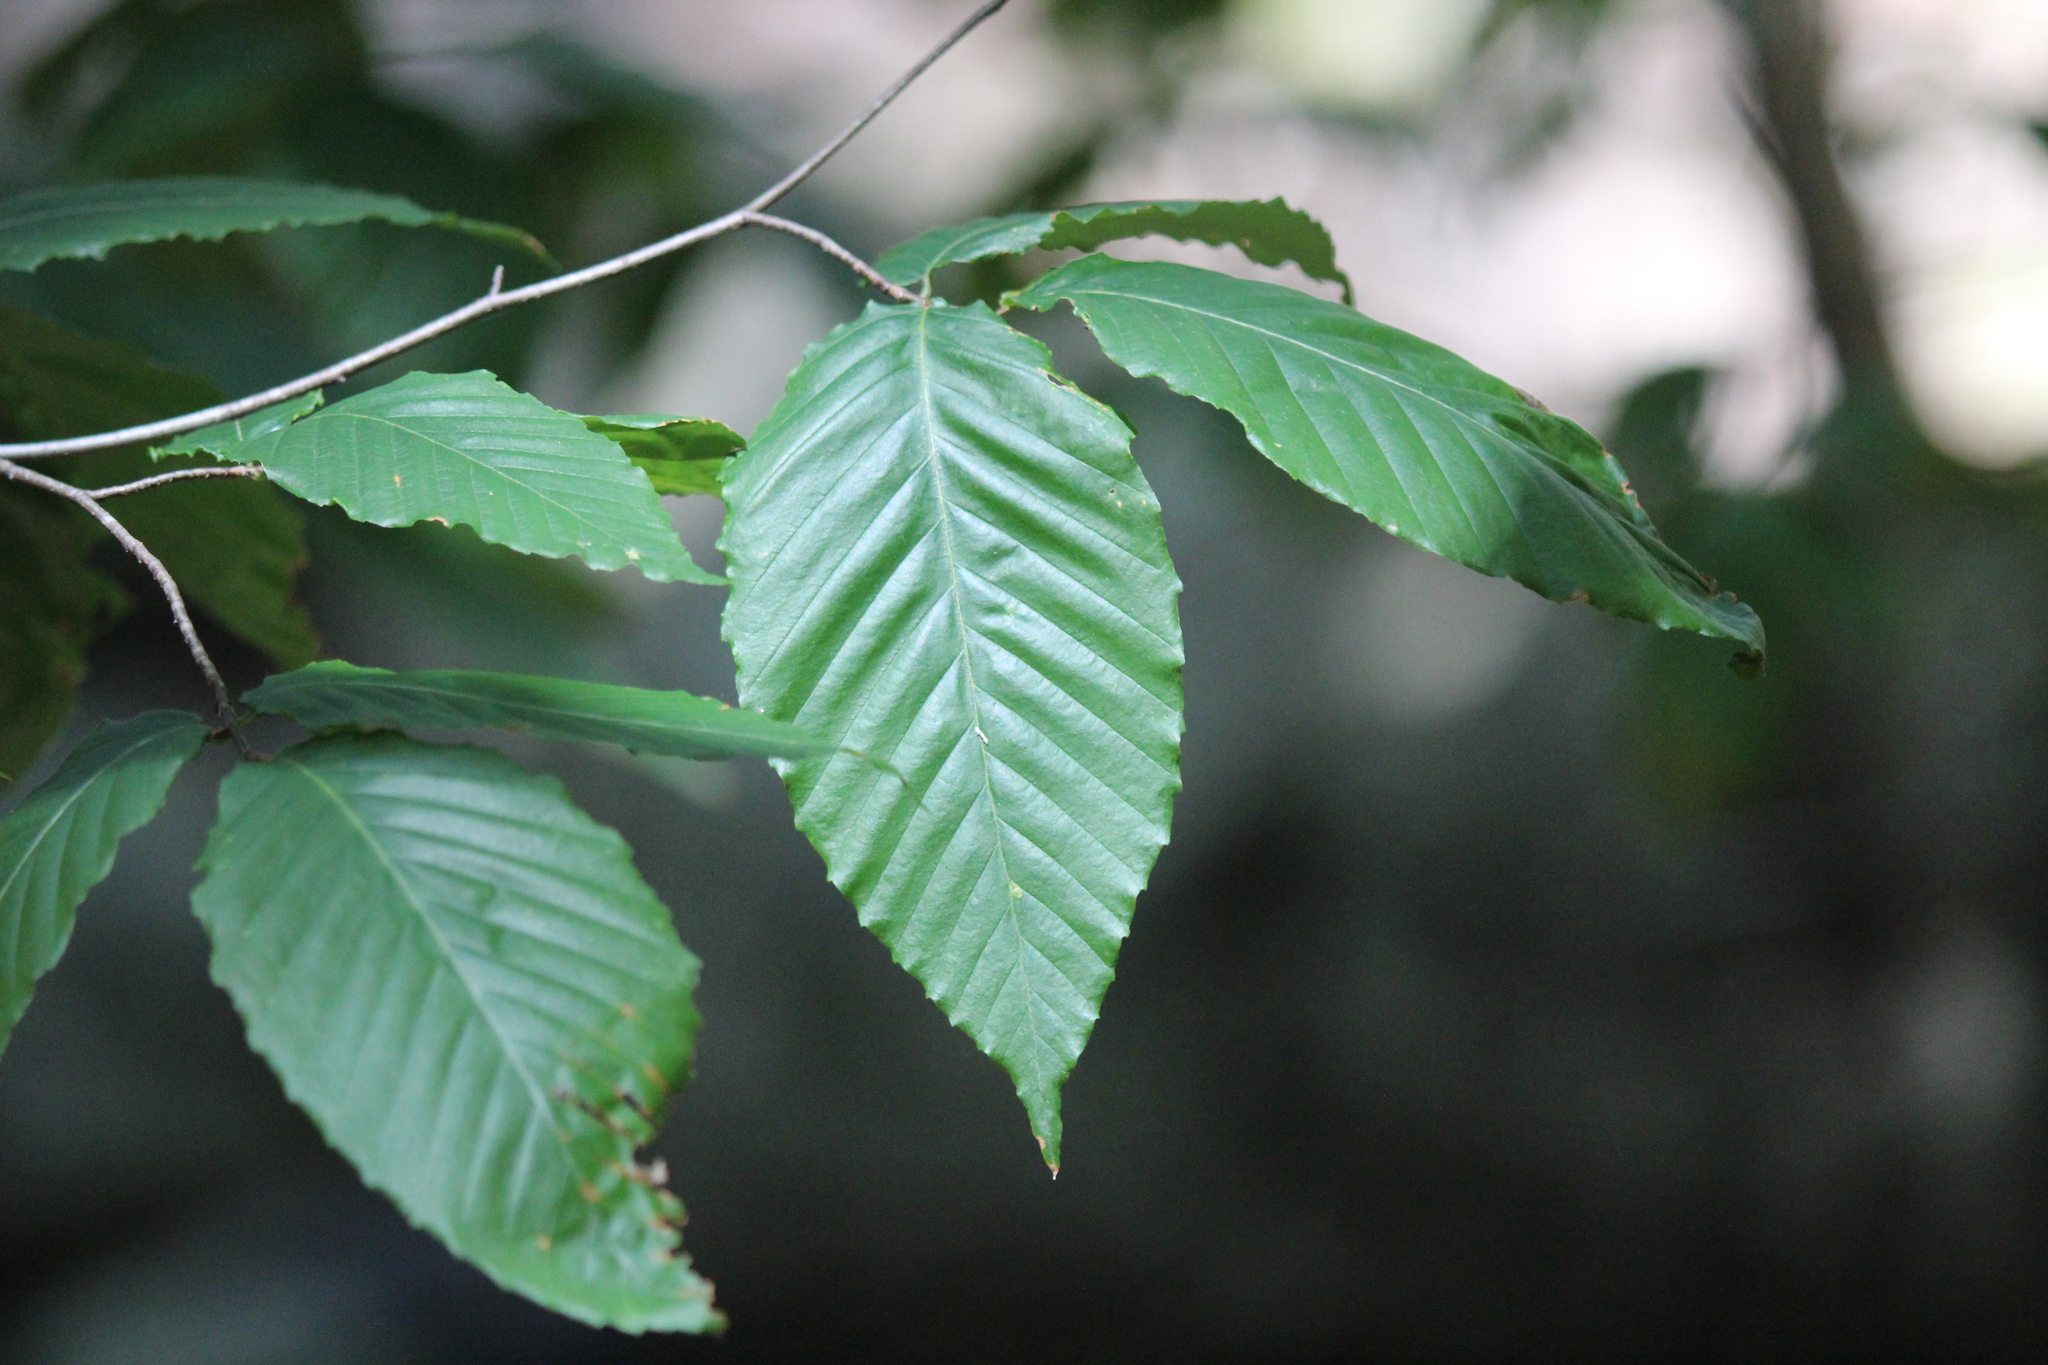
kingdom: Plantae
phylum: Tracheophyta
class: Magnoliopsida
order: Fagales
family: Fagaceae
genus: Fagus
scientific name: Fagus grandifolia
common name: American beech
